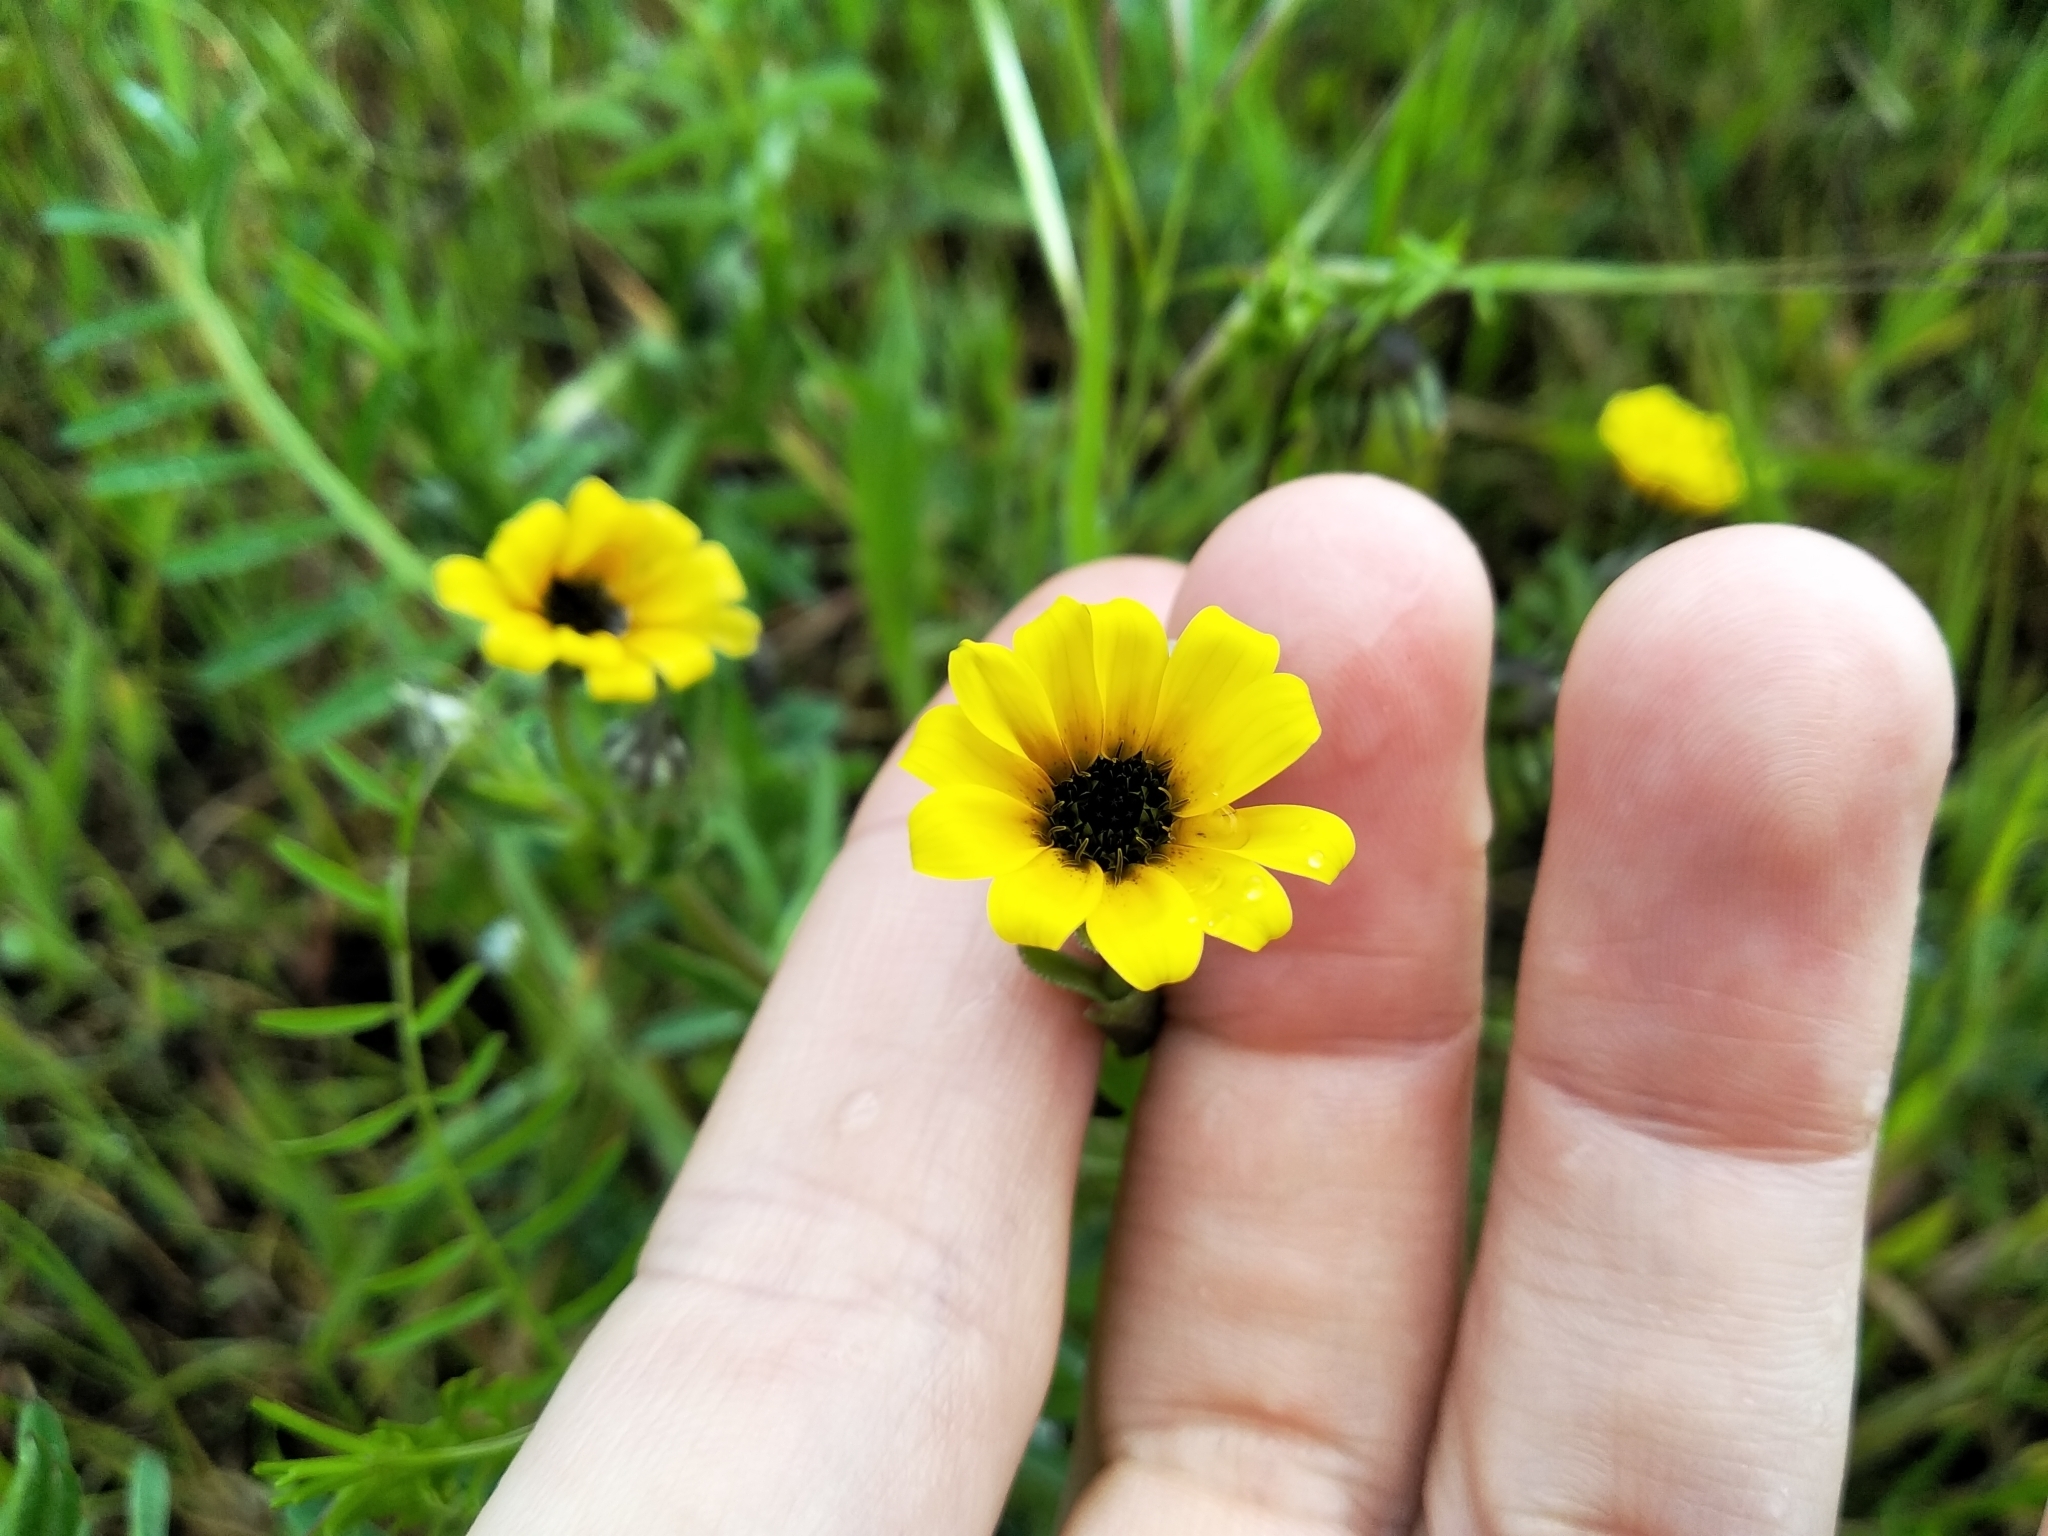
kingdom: Plantae
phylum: Tracheophyta
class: Magnoliopsida
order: Asterales
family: Asteraceae
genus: Osteospermum
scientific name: Osteospermum monstrosum
